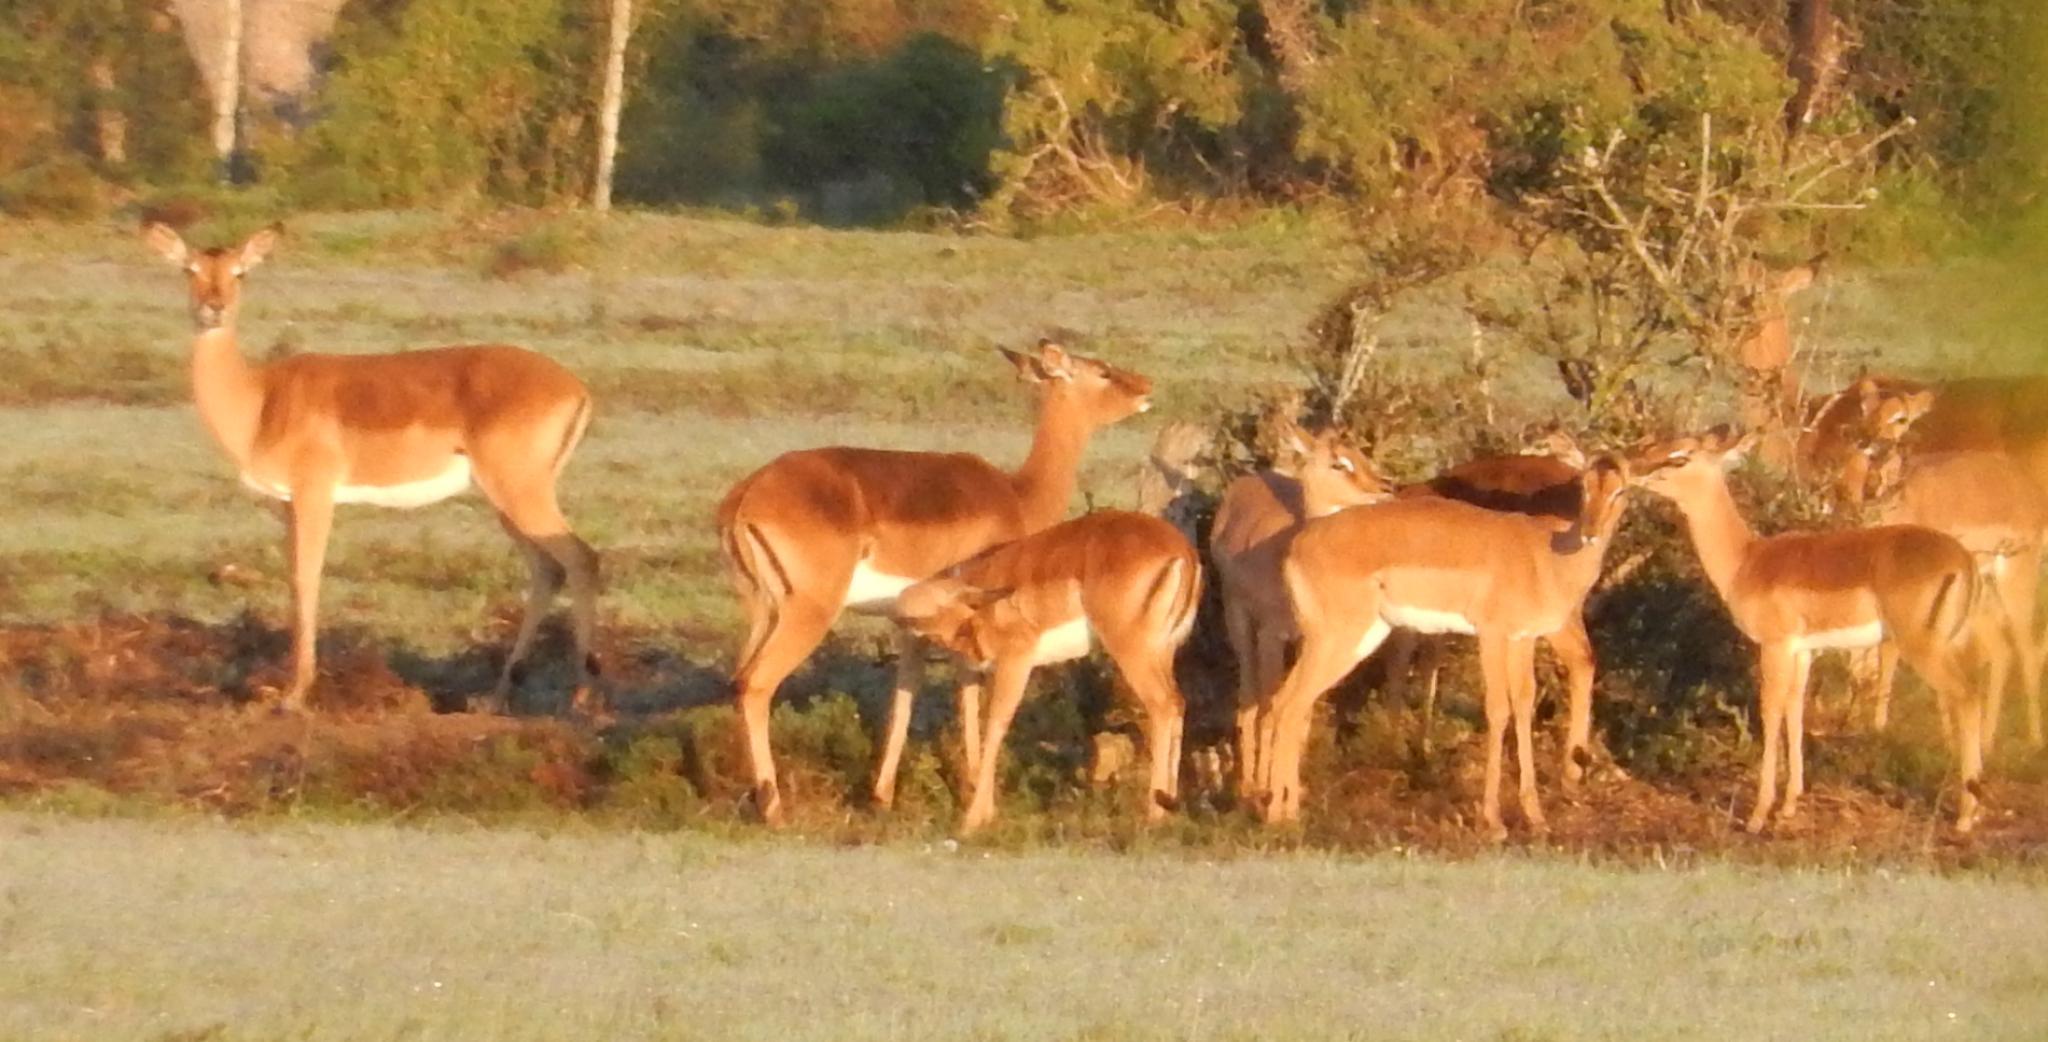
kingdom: Animalia
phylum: Chordata
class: Mammalia
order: Artiodactyla
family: Bovidae
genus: Aepyceros
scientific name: Aepyceros melampus
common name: Impala
